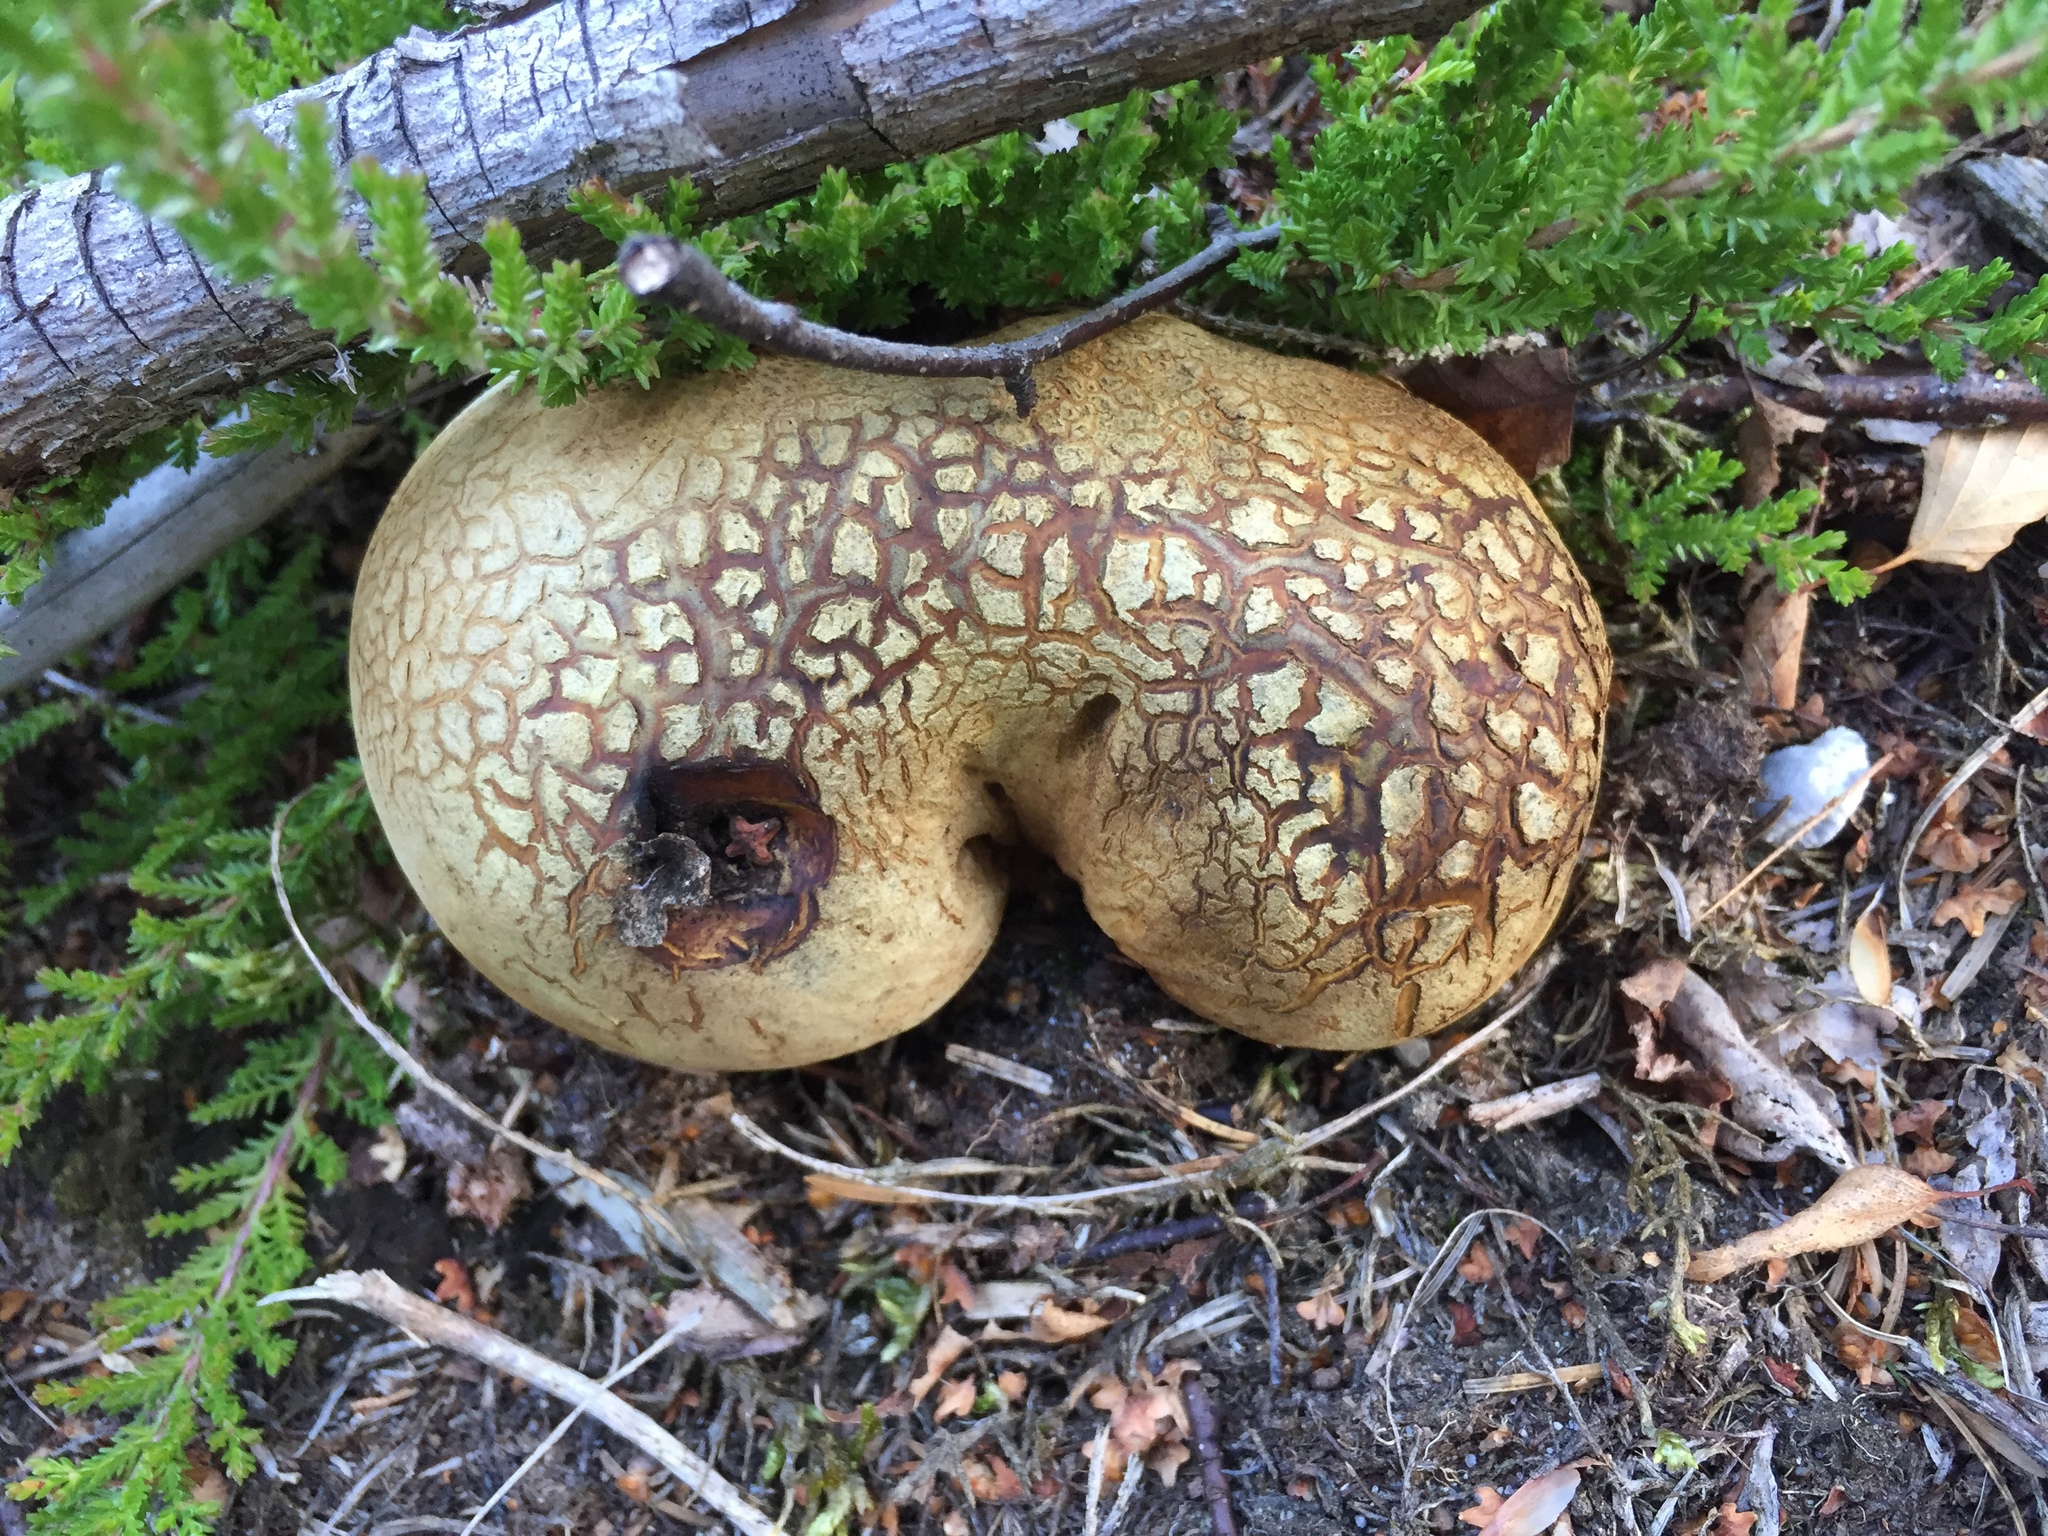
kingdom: Fungi
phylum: Basidiomycota
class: Agaricomycetes
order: Boletales
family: Sclerodermataceae
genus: Scleroderma
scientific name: Scleroderma citrinum
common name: Common earthball
